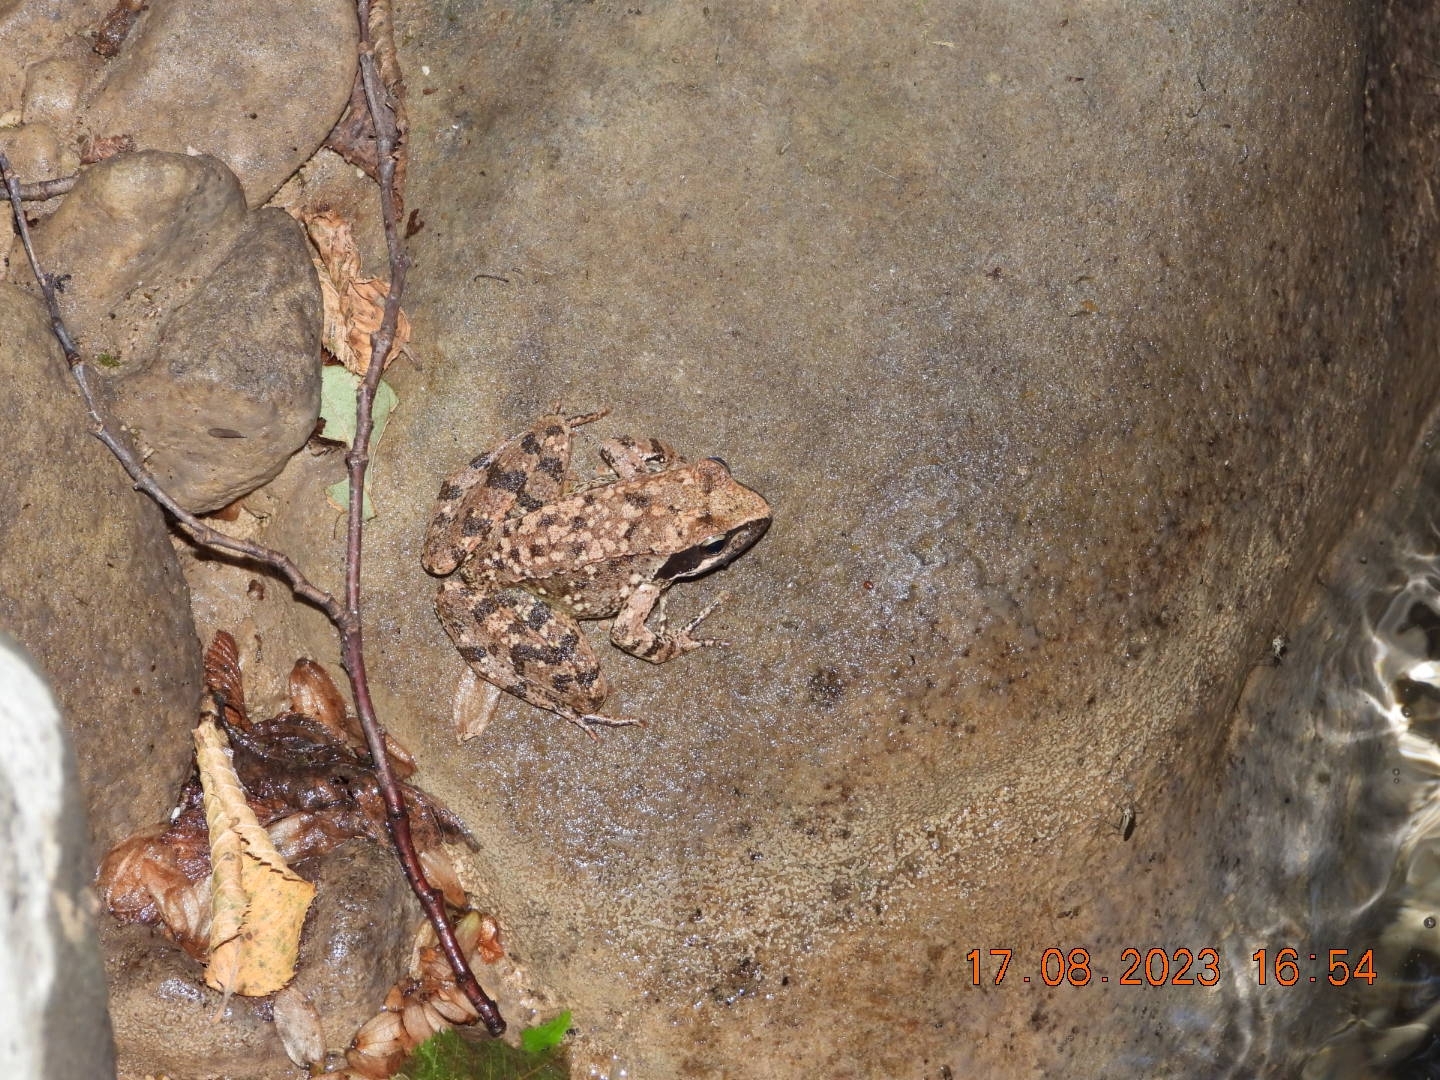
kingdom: Animalia
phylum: Chordata
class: Amphibia
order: Anura
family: Ranidae
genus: Rana
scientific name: Rana italica
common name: Italian stream frog
